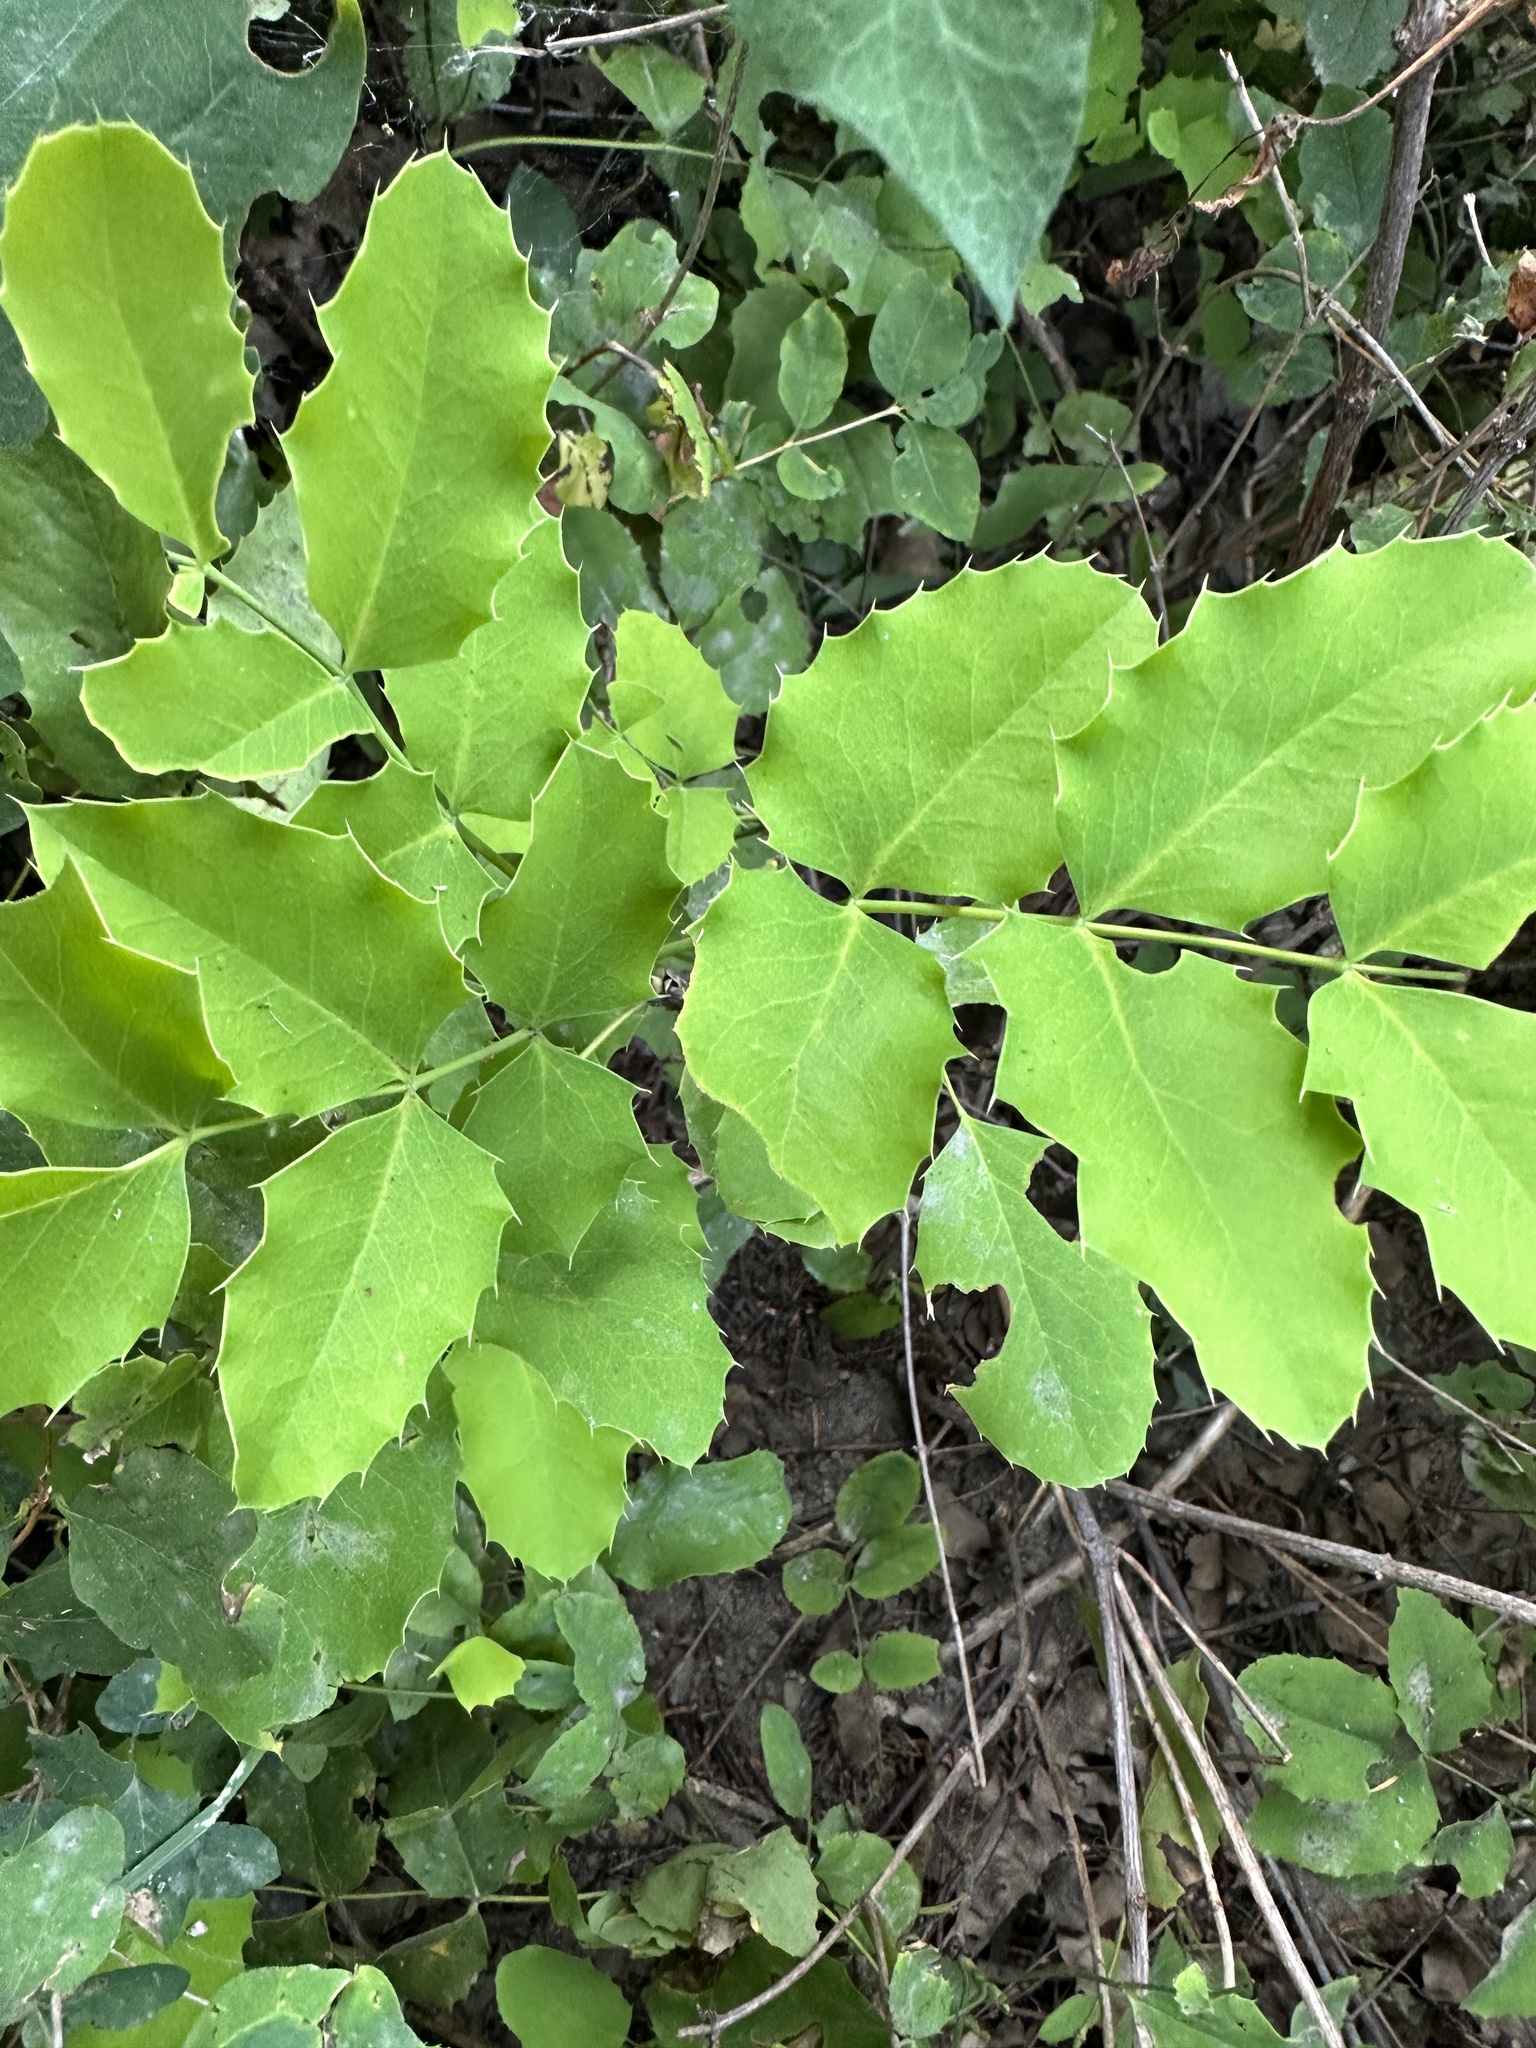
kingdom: Plantae
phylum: Tracheophyta
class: Magnoliopsida
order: Ranunculales
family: Berberidaceae
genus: Mahonia
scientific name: Mahonia repens
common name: Creeping oregon-grape
